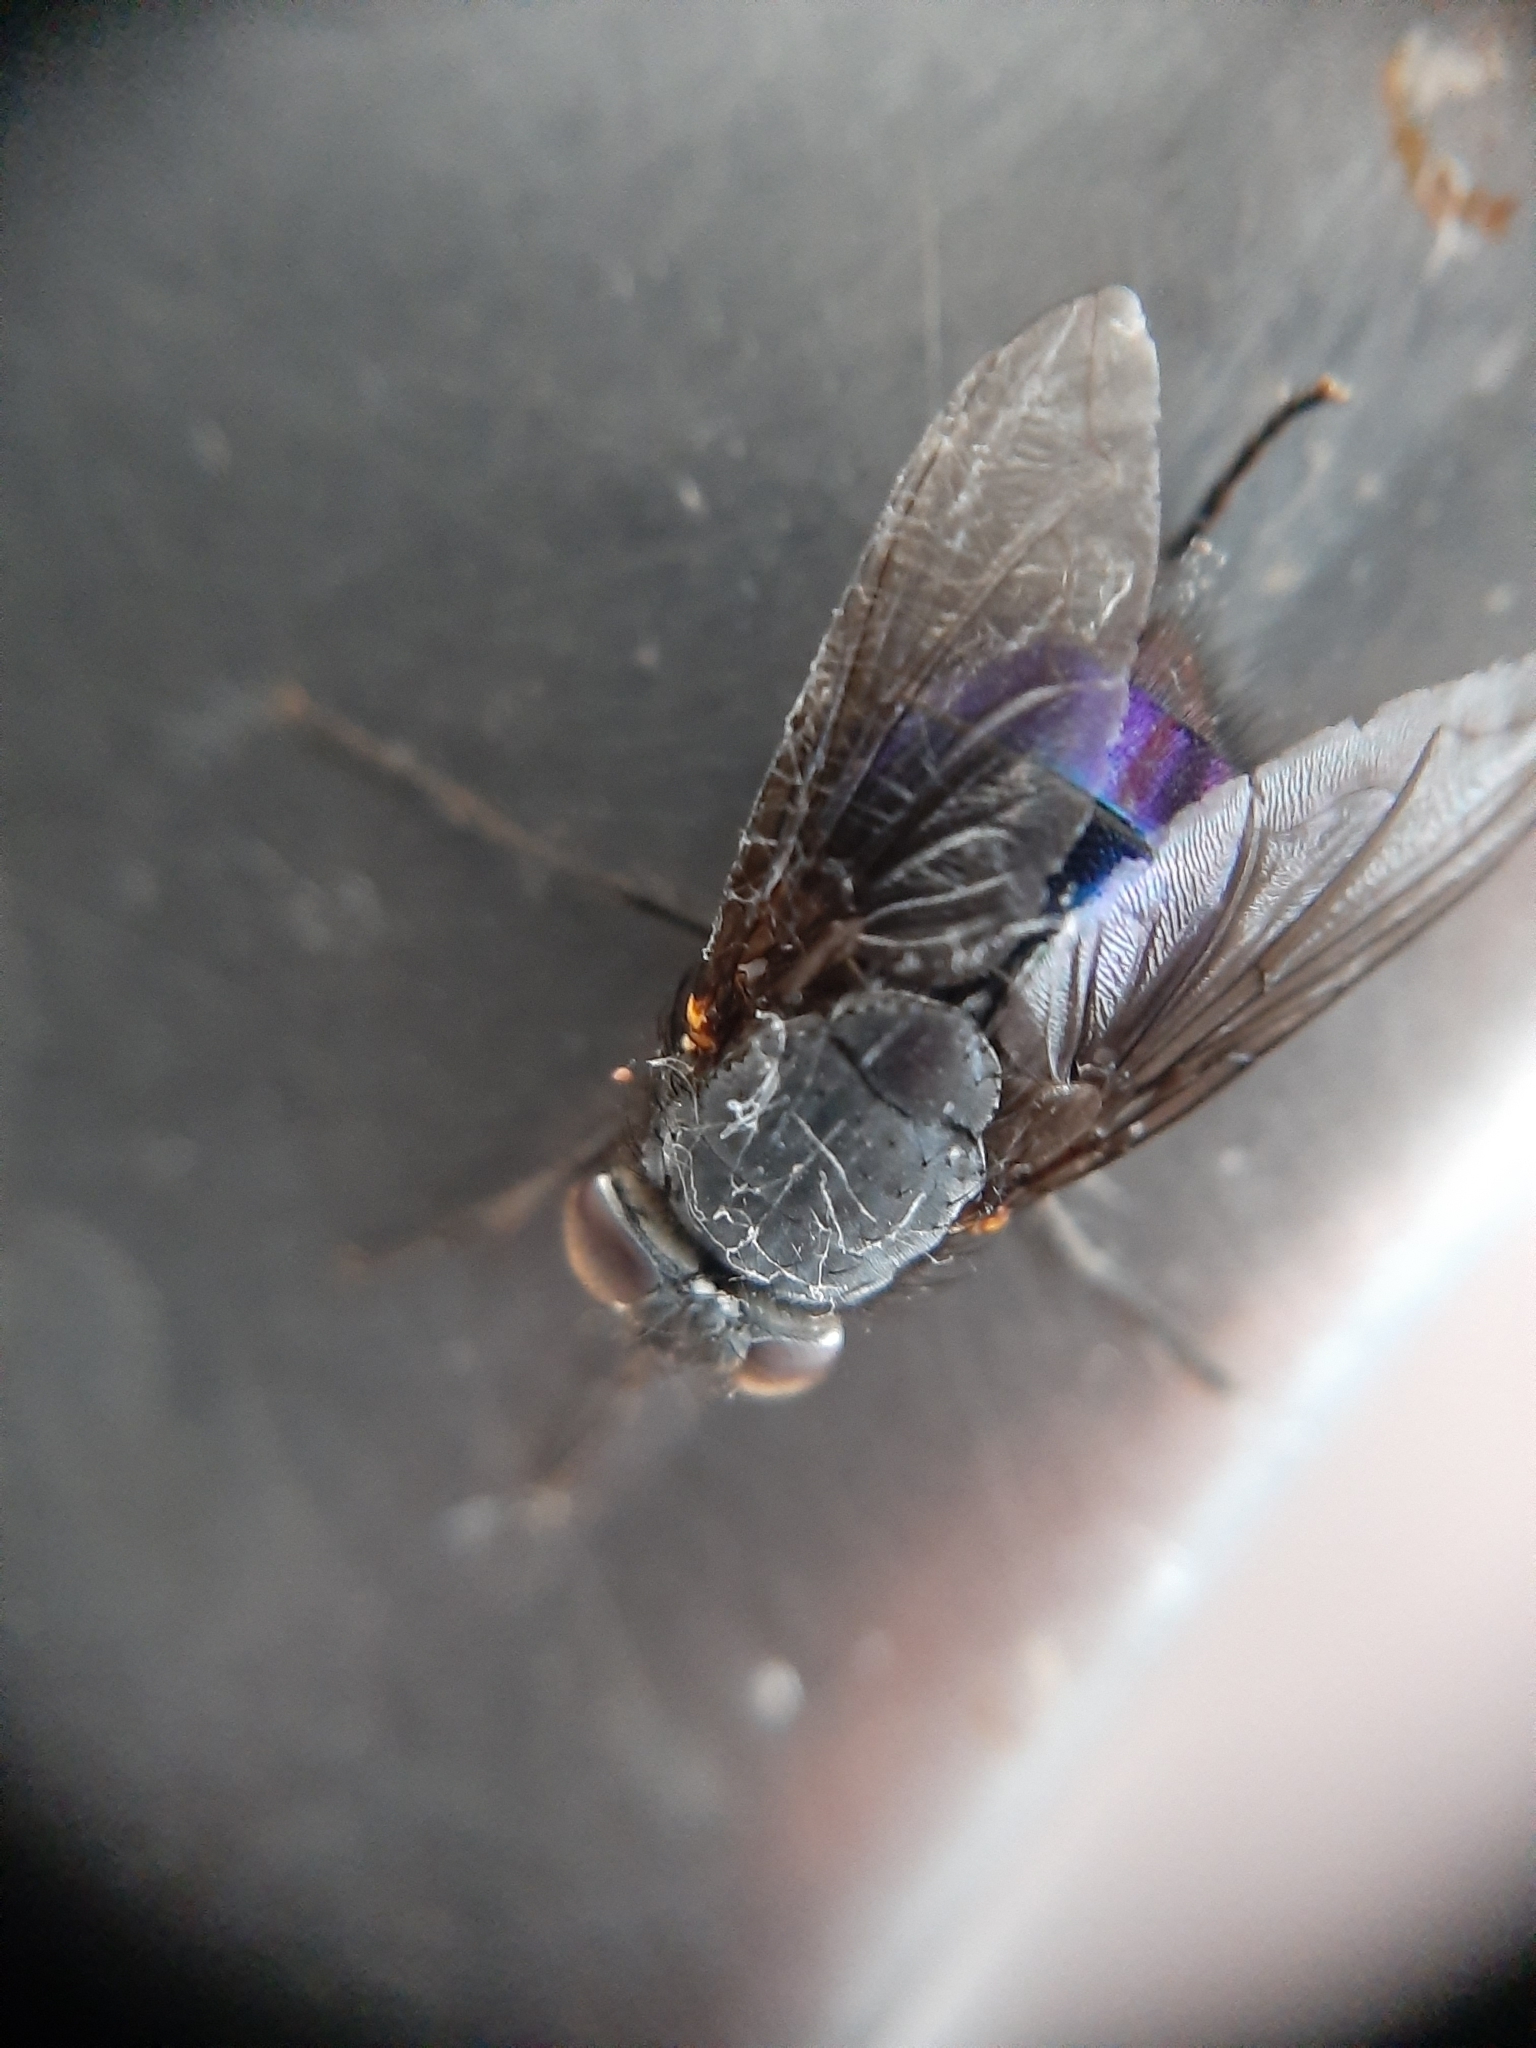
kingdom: Animalia
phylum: Arthropoda
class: Insecta
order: Diptera
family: Calliphoridae
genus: Calliphora
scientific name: Calliphora quadrimaculata
